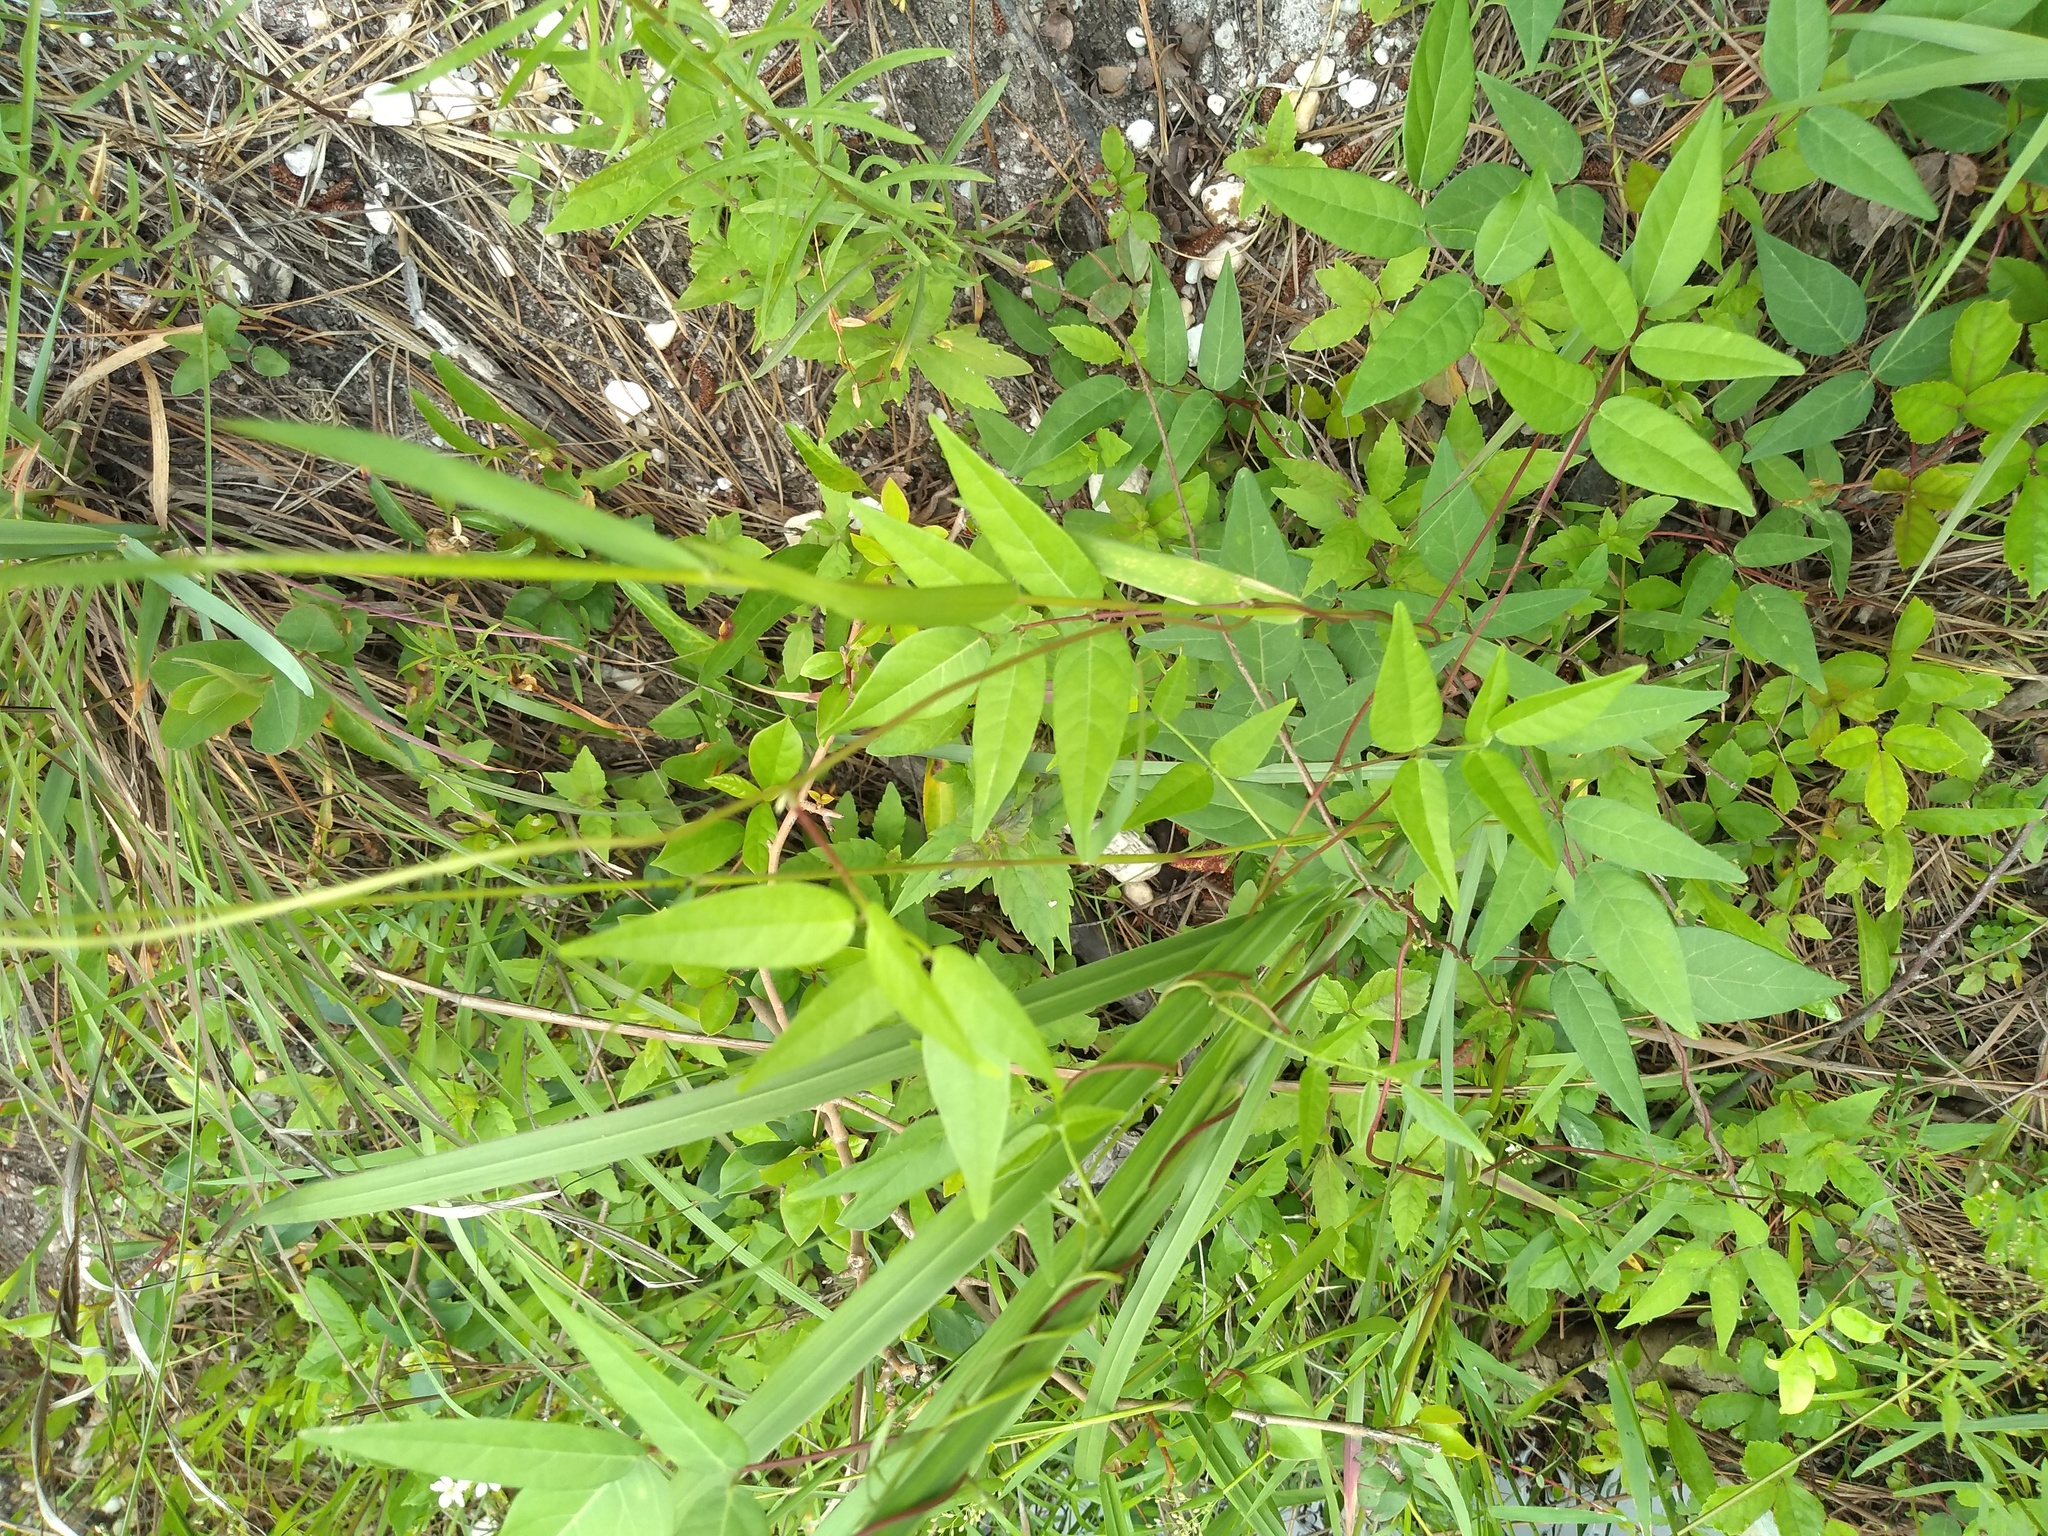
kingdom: Plantae
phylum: Tracheophyta
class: Magnoliopsida
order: Fabales
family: Fabaceae
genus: Apios
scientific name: Apios americana
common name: American potato-bean
